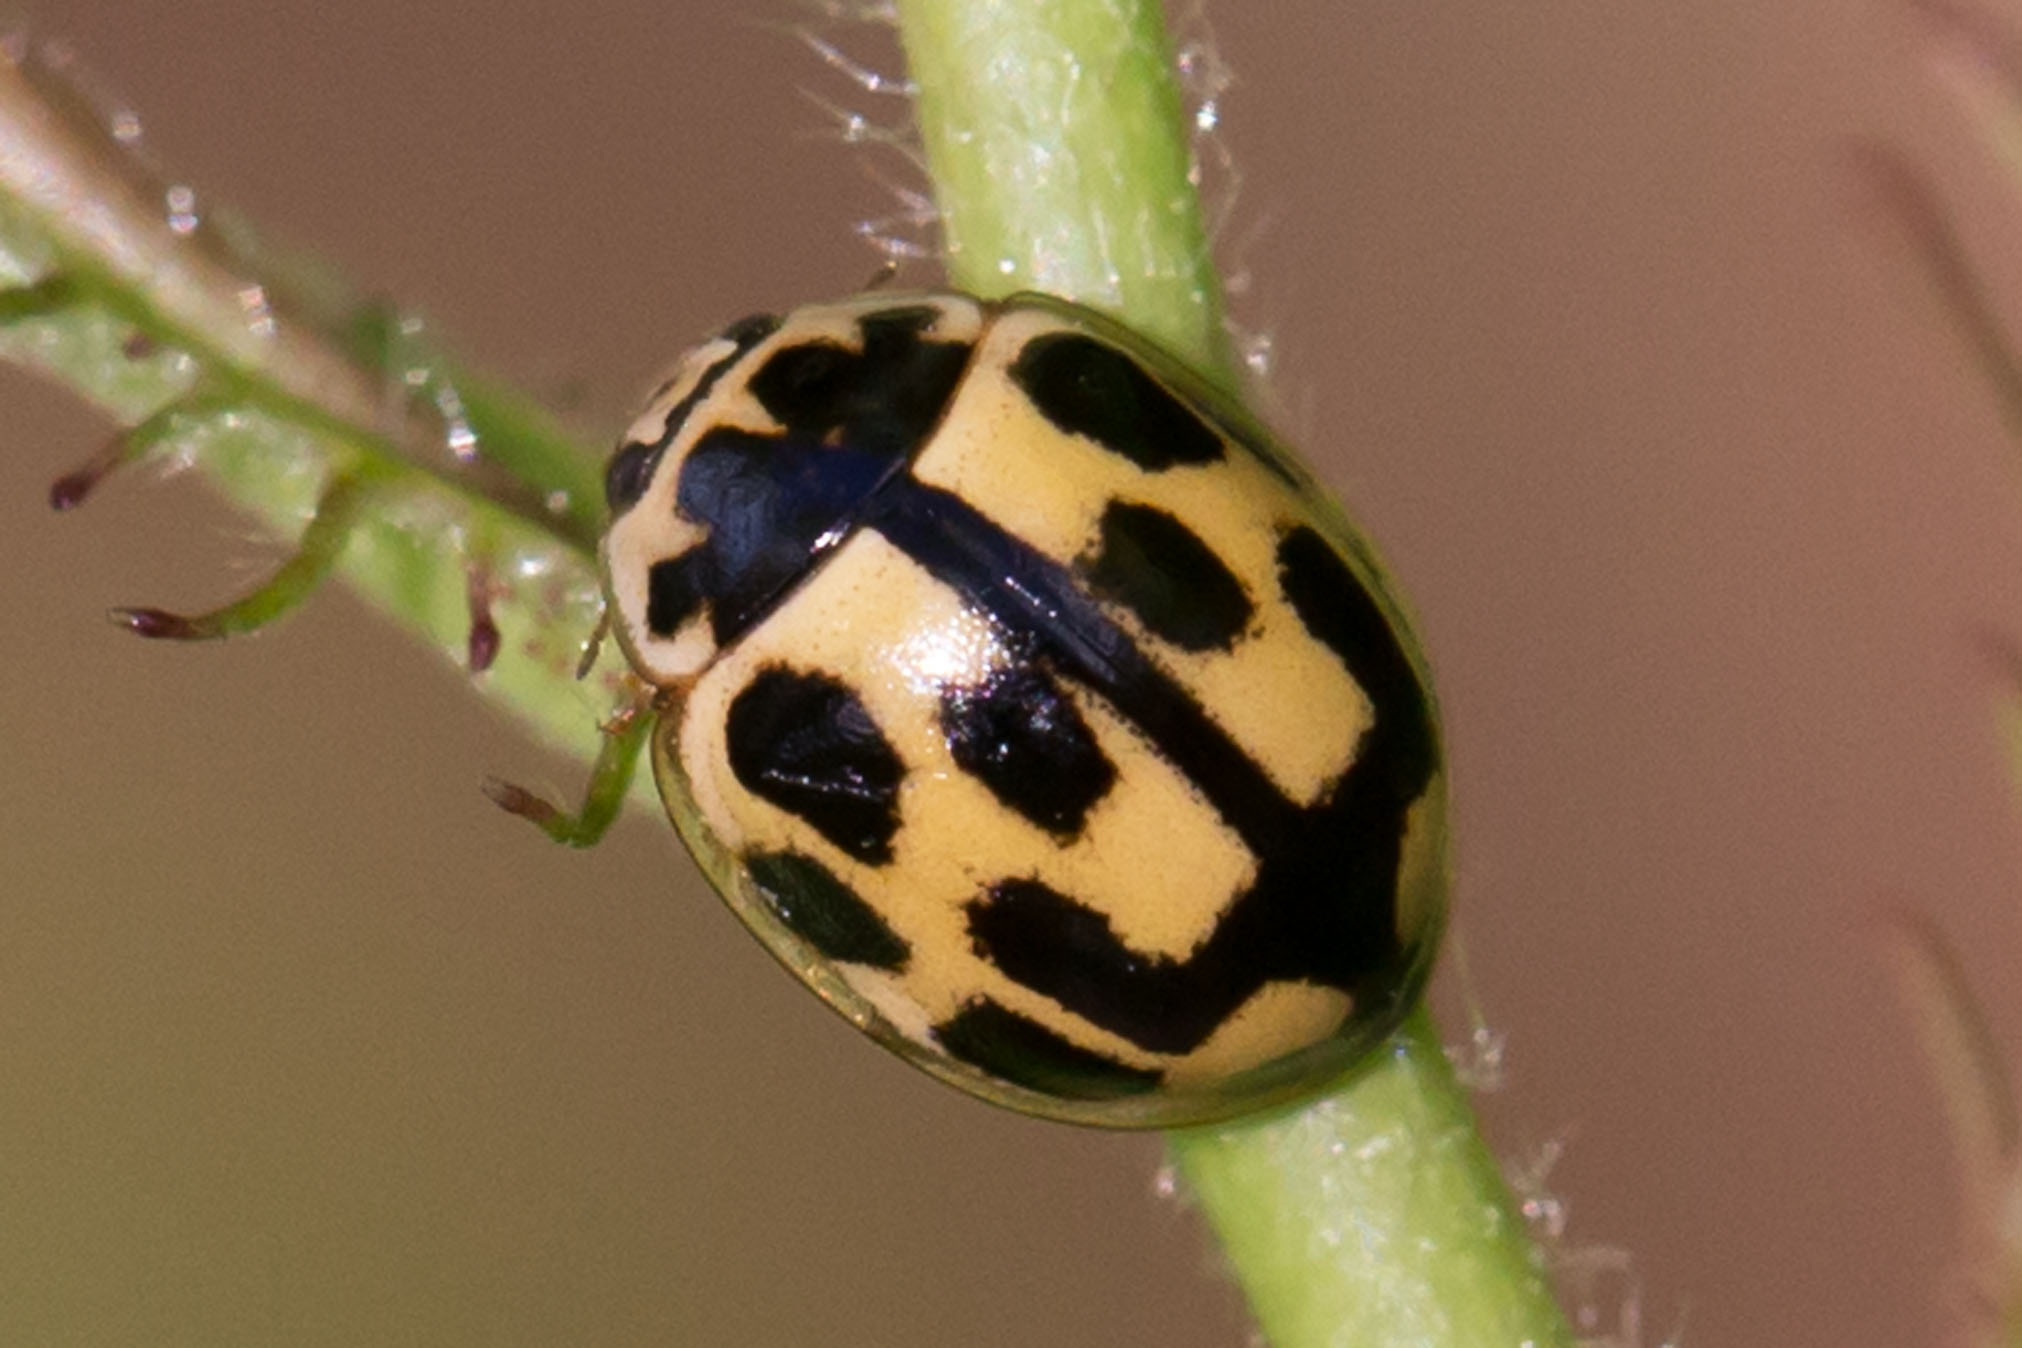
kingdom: Animalia
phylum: Arthropoda
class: Insecta
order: Coleoptera
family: Coccinellidae
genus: Propylaea
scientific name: Propylaea quatuordecimpunctata
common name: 14-spotted ladybird beetle
